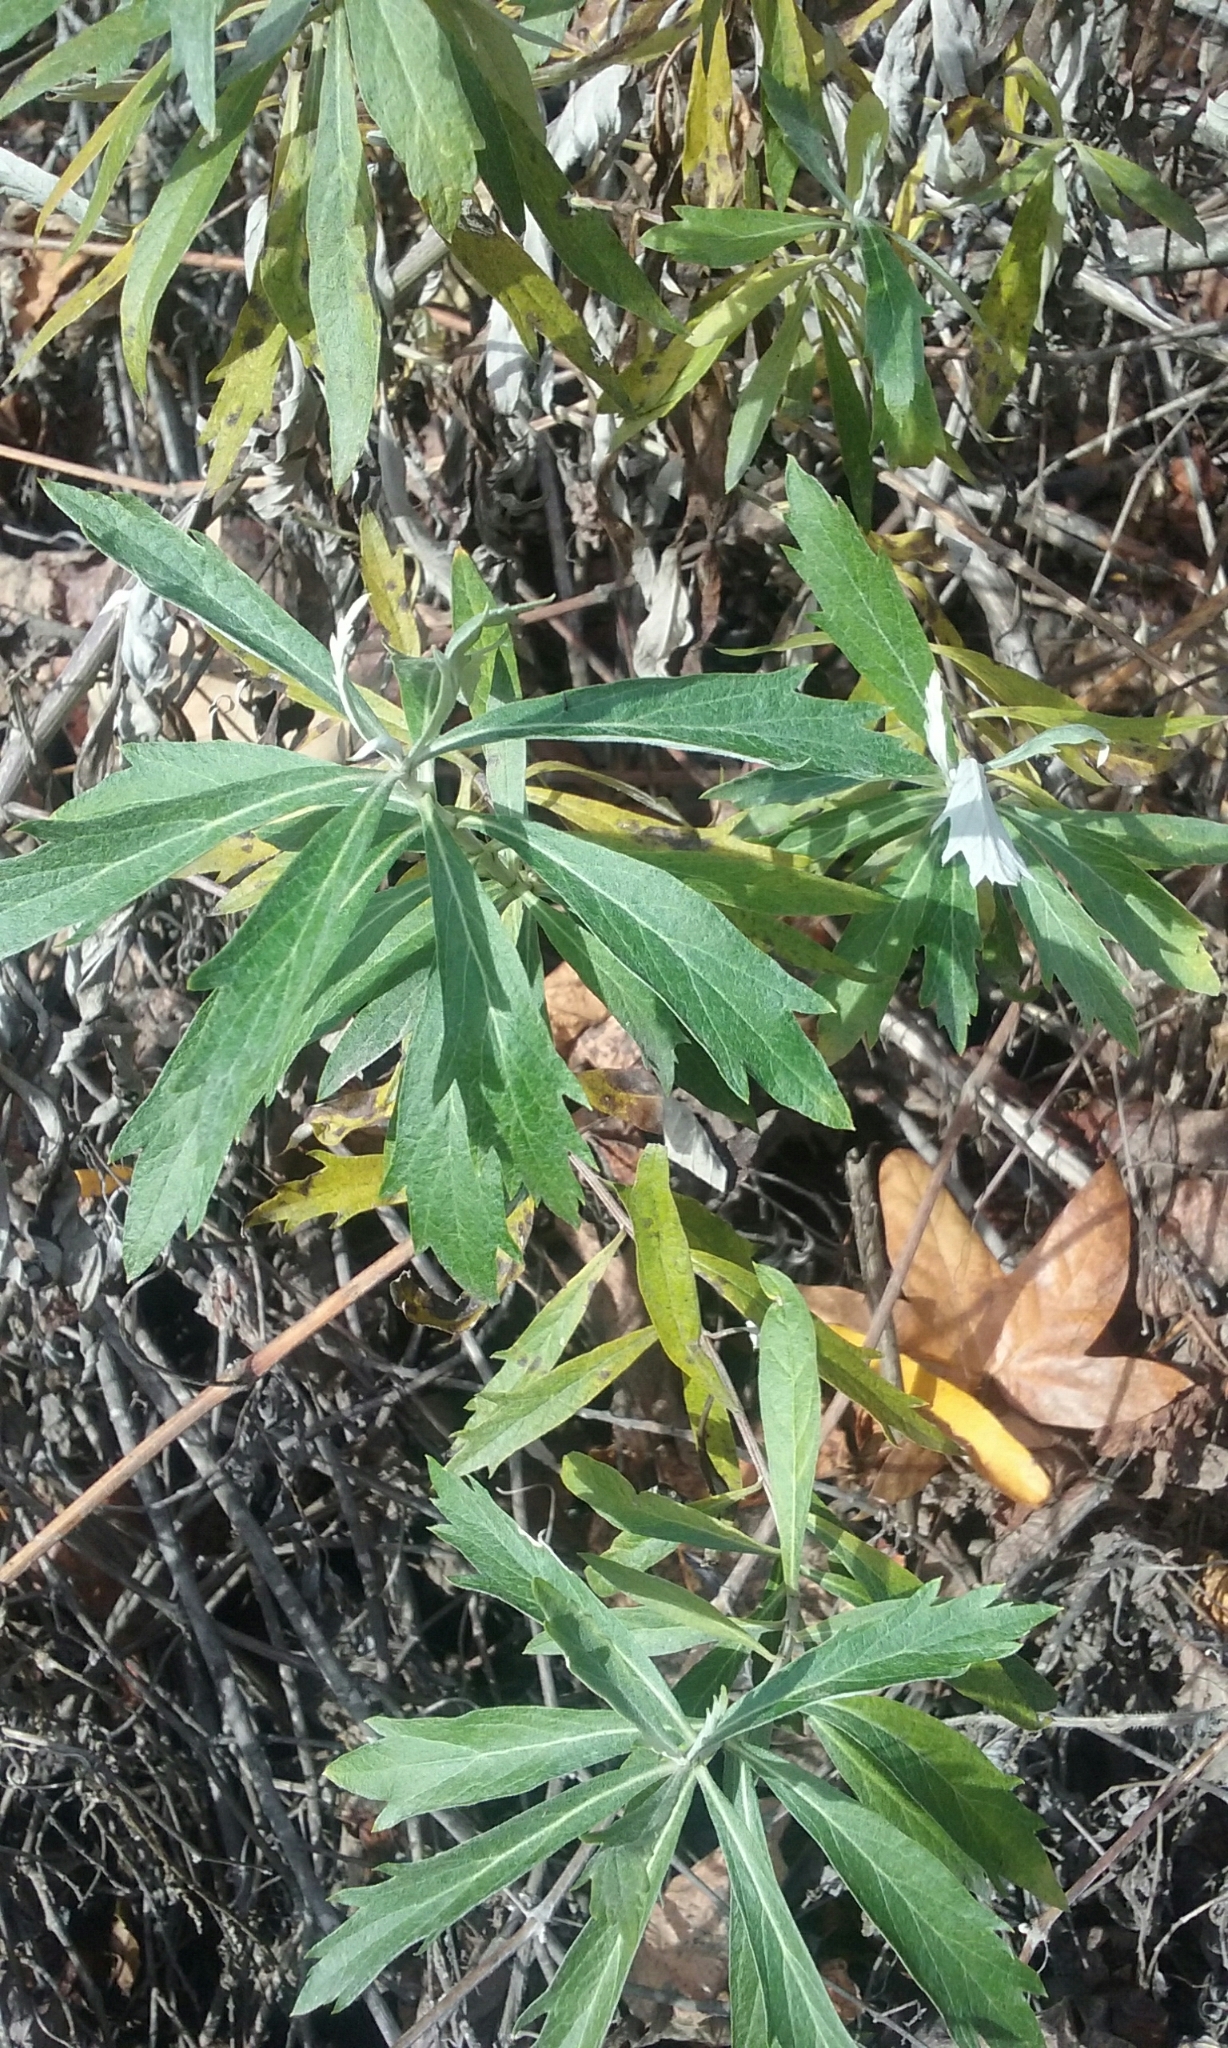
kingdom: Plantae
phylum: Tracheophyta
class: Magnoliopsida
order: Asterales
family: Asteraceae
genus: Artemisia
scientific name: Artemisia douglasiana
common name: Northwest mugwort
